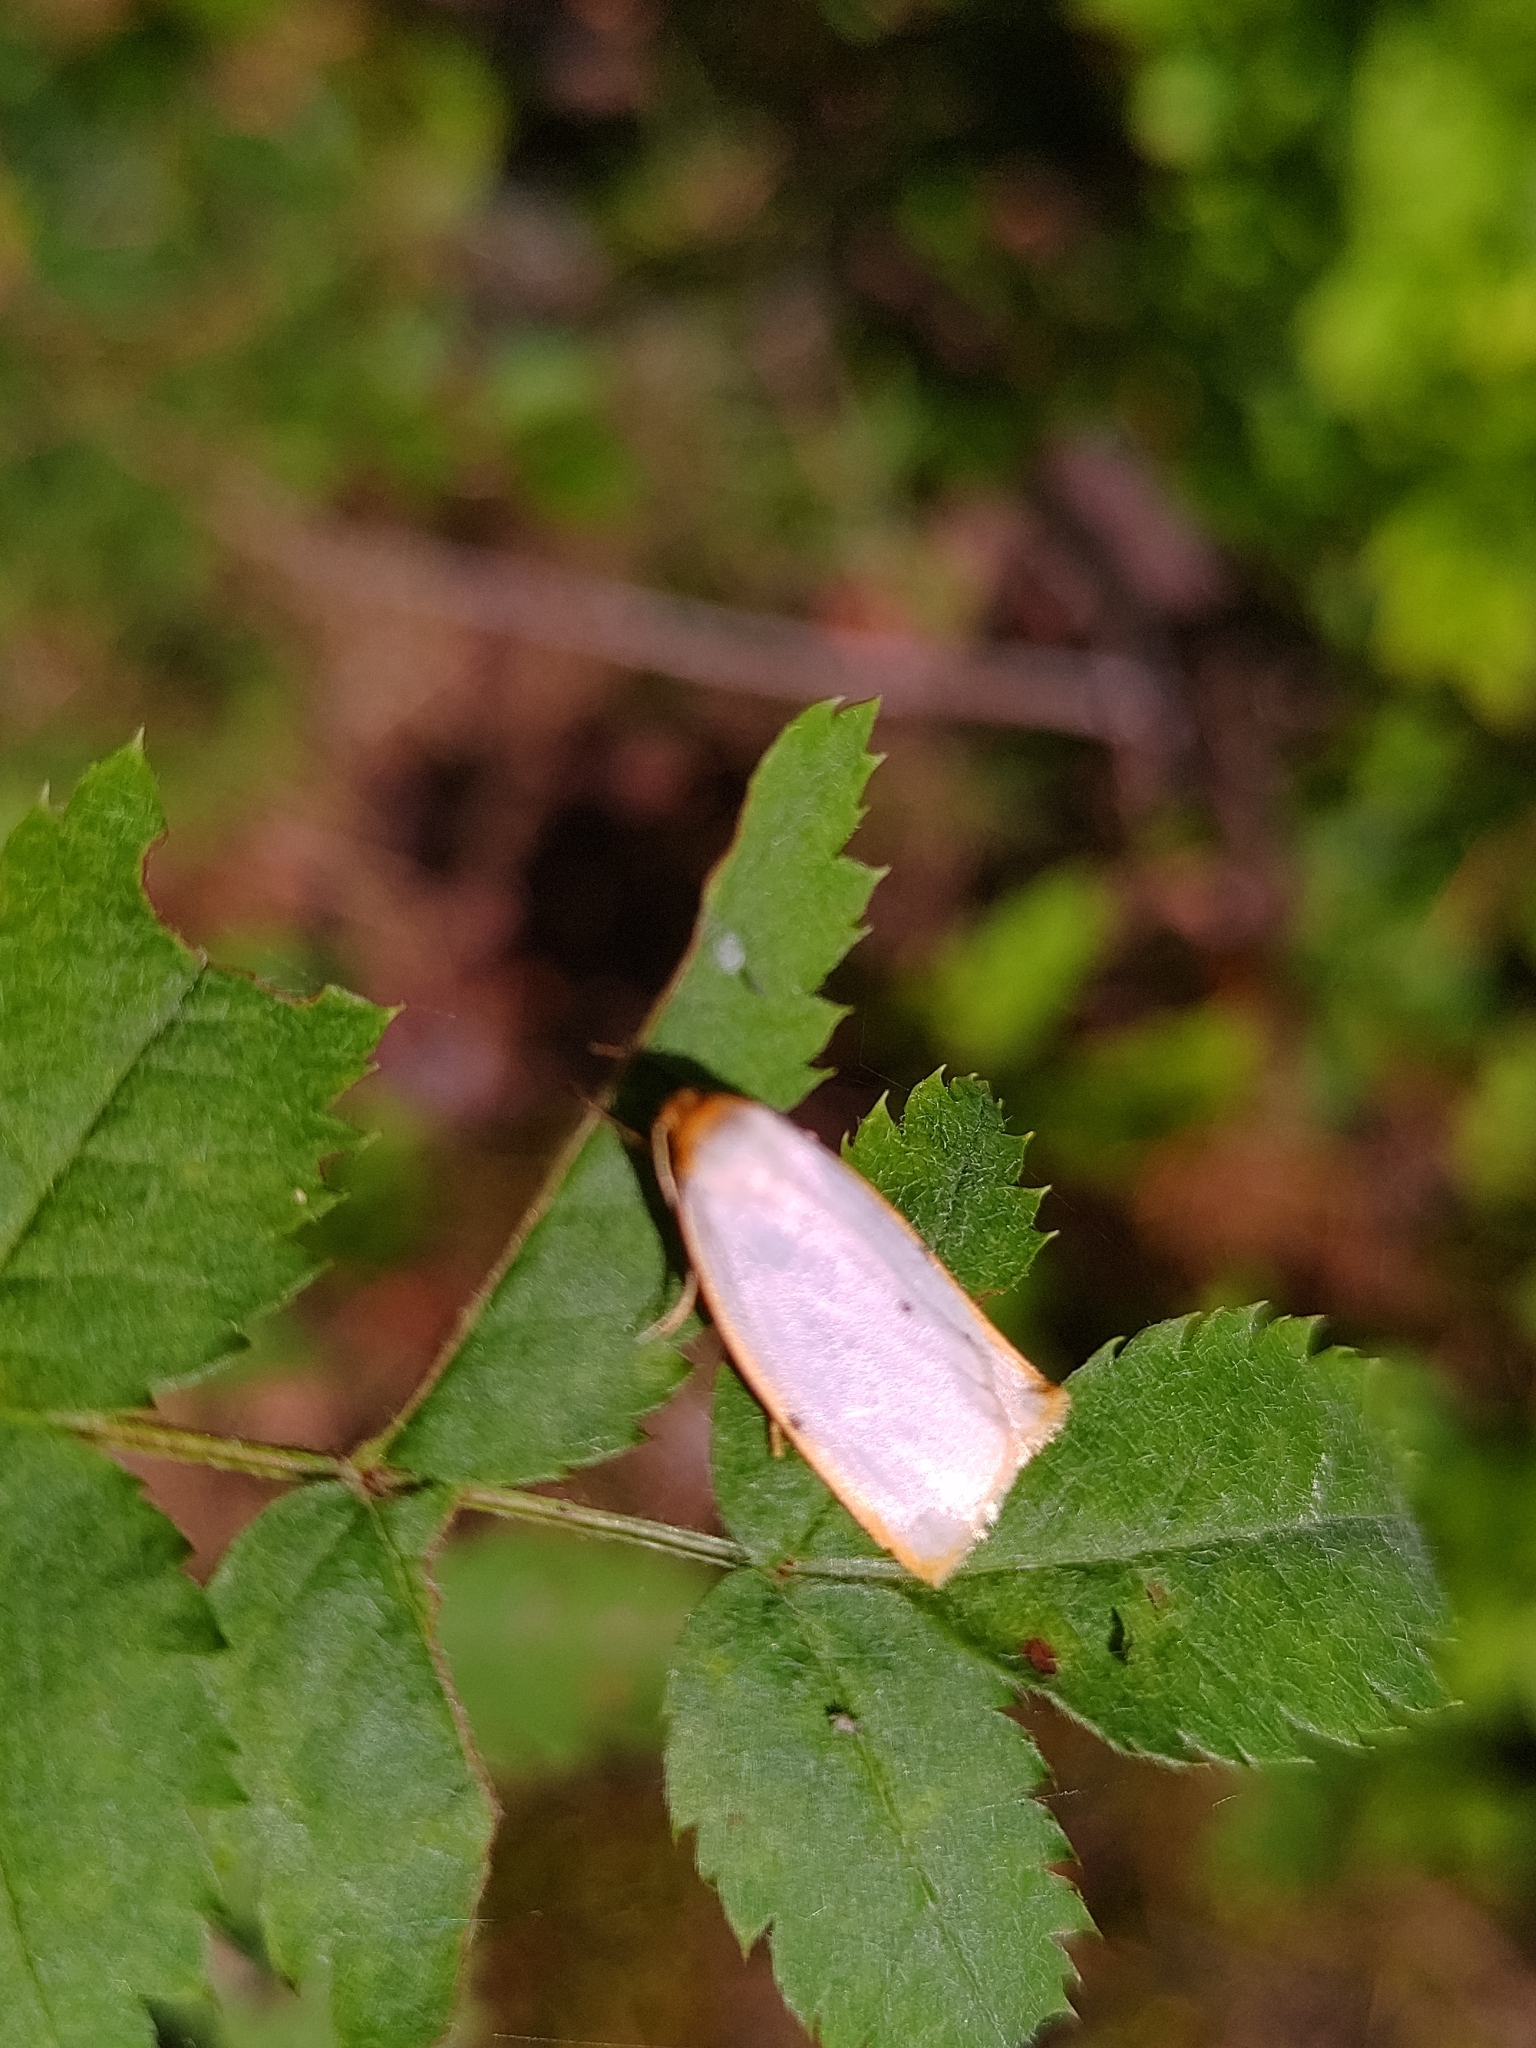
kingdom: Animalia
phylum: Arthropoda
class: Insecta
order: Lepidoptera
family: Erebidae
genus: Cybosia
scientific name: Cybosia mesomella
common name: Four-dotted footman
